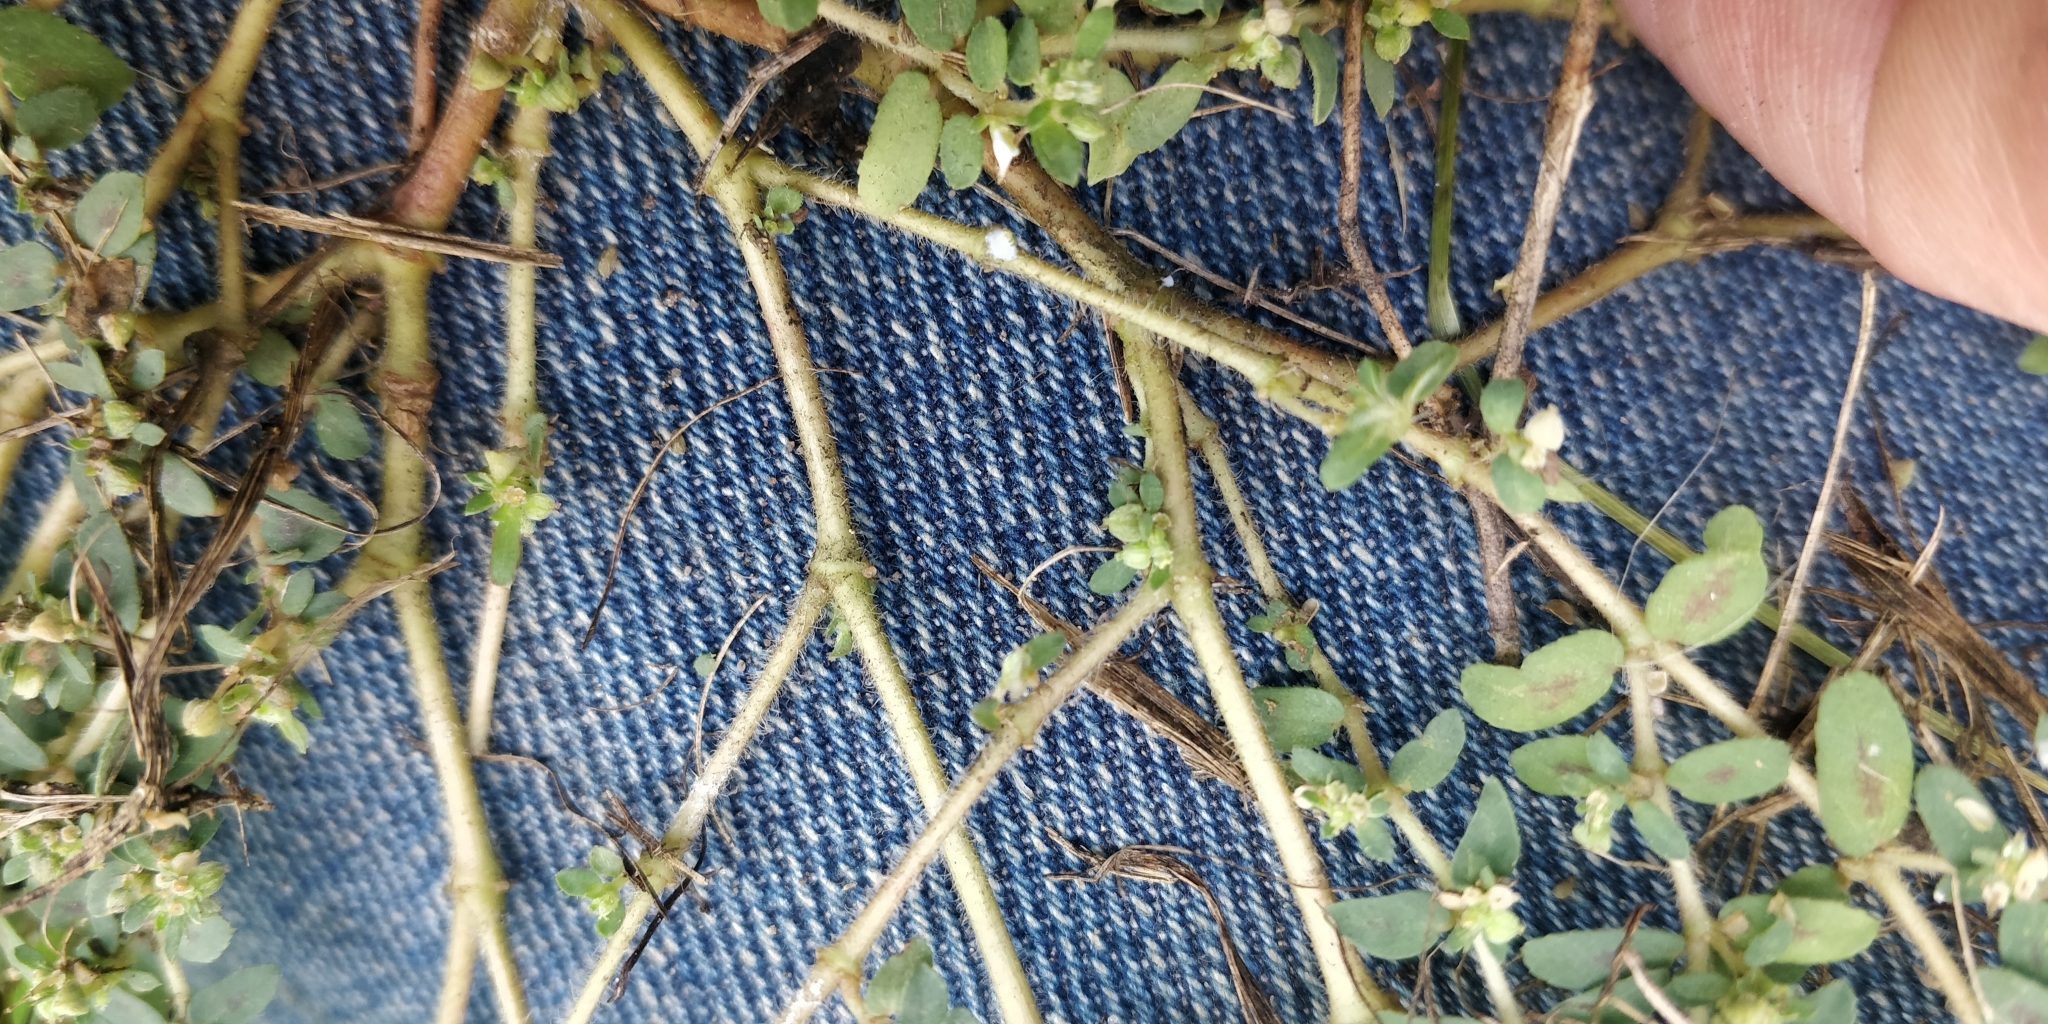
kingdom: Plantae
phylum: Tracheophyta
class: Magnoliopsida
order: Malpighiales
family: Euphorbiaceae
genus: Euphorbia
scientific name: Euphorbia maculata
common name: Spotted spurge
